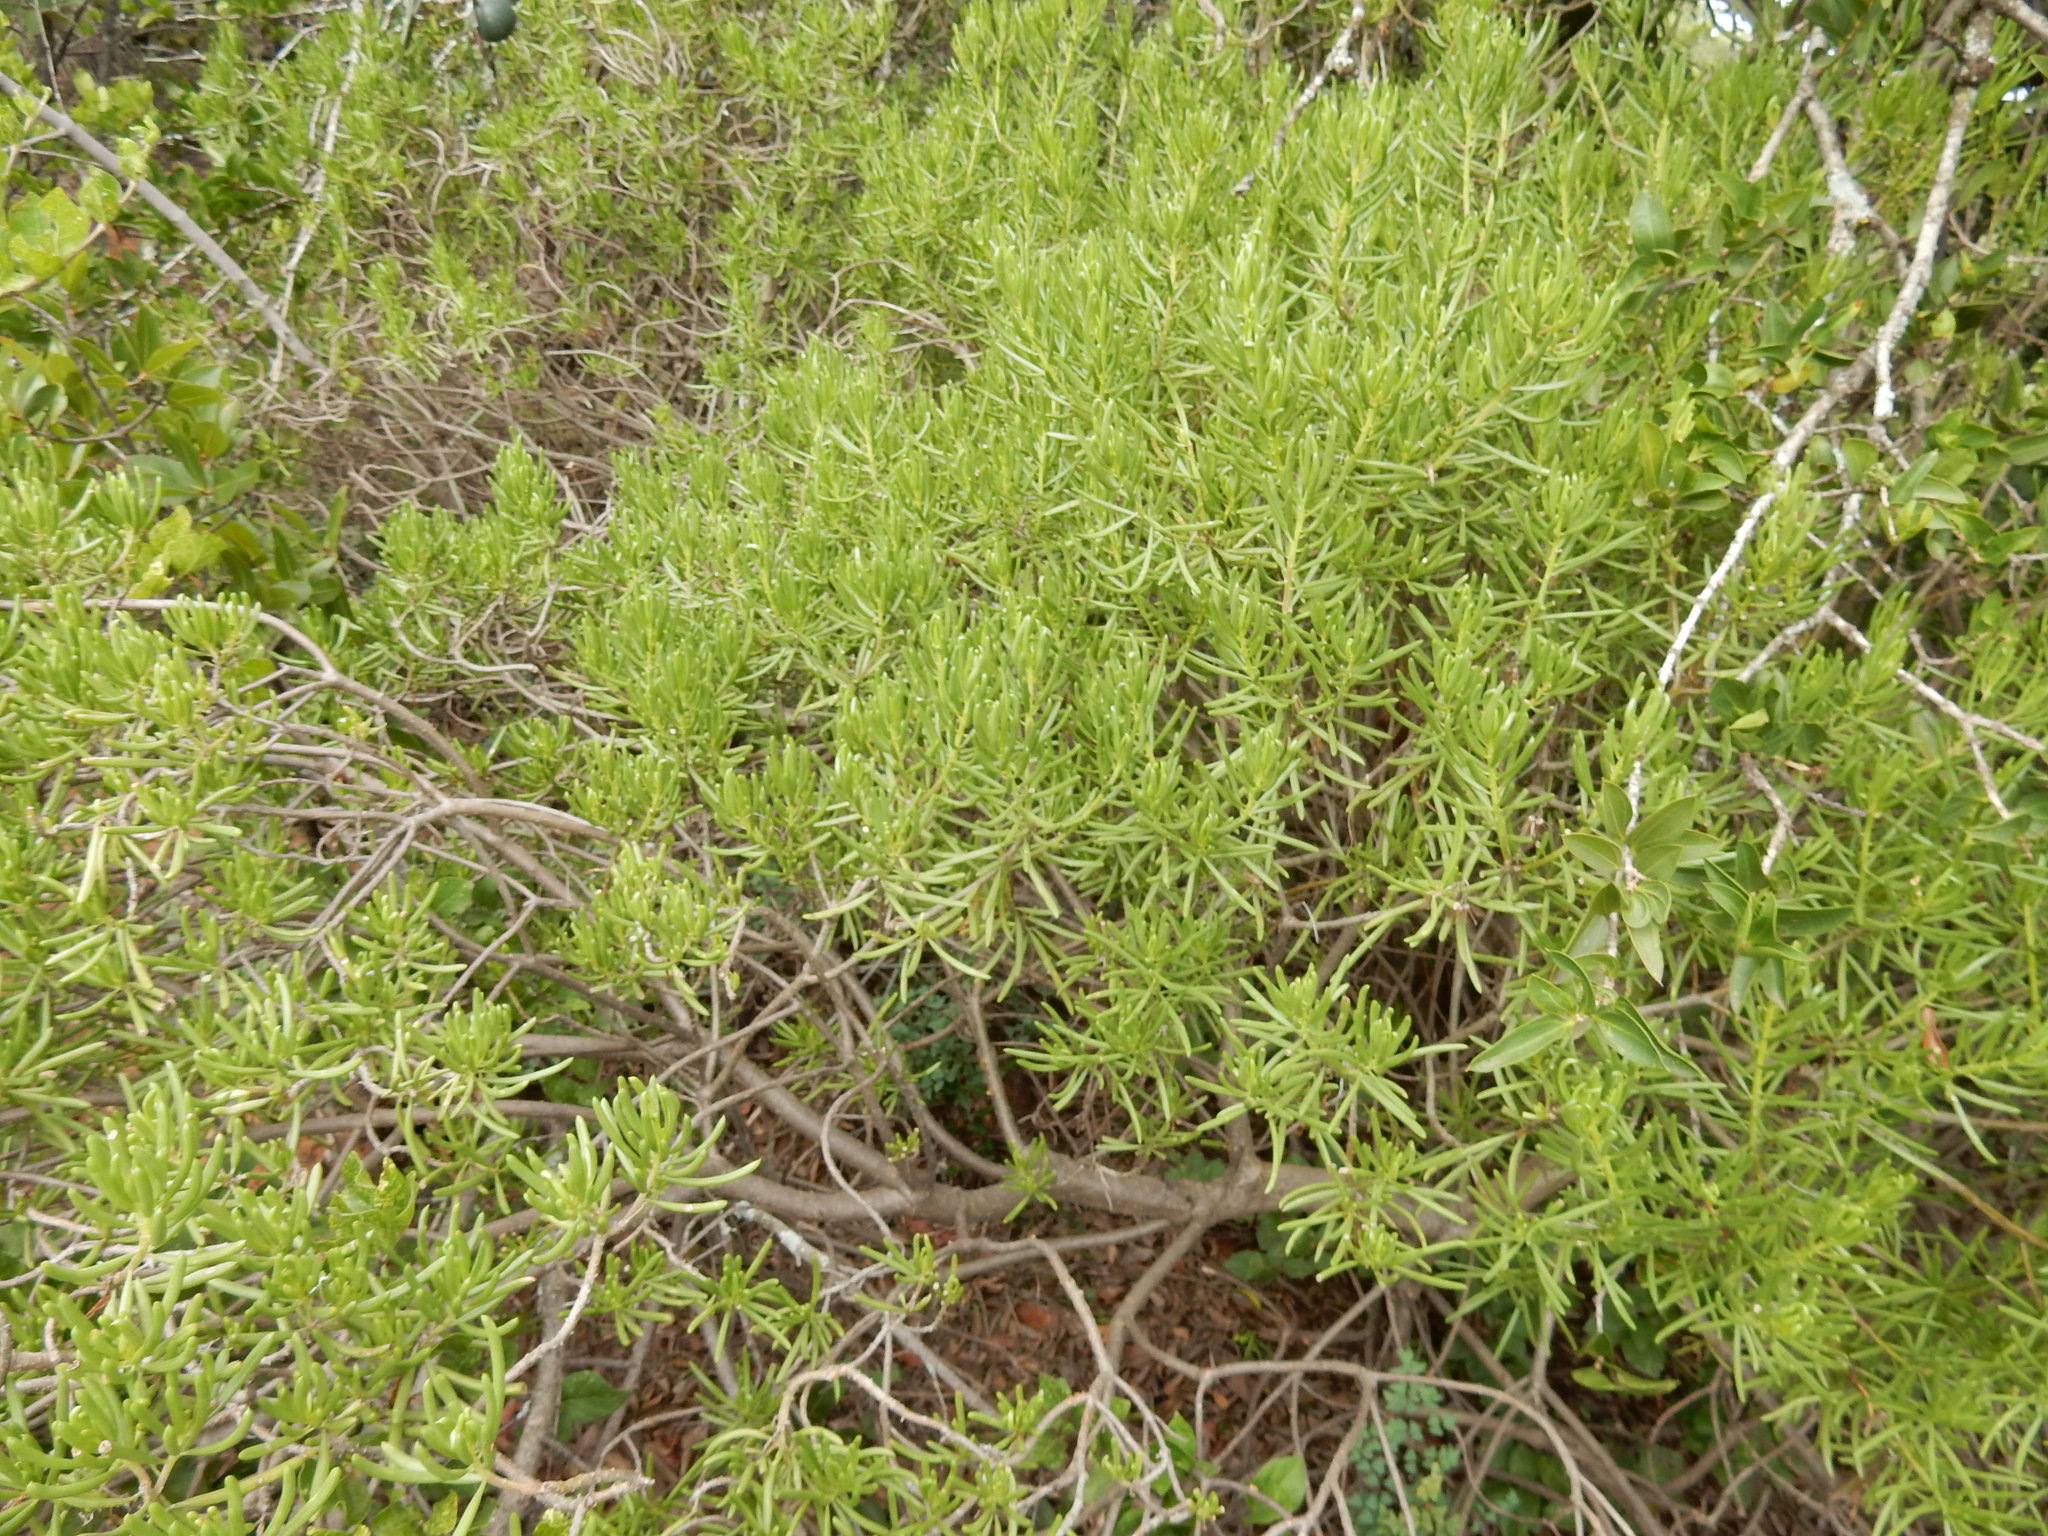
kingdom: Plantae
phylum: Tracheophyta
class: Magnoliopsida
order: Asterales
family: Asteraceae
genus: Kleinia
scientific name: Kleinia barbertonica
